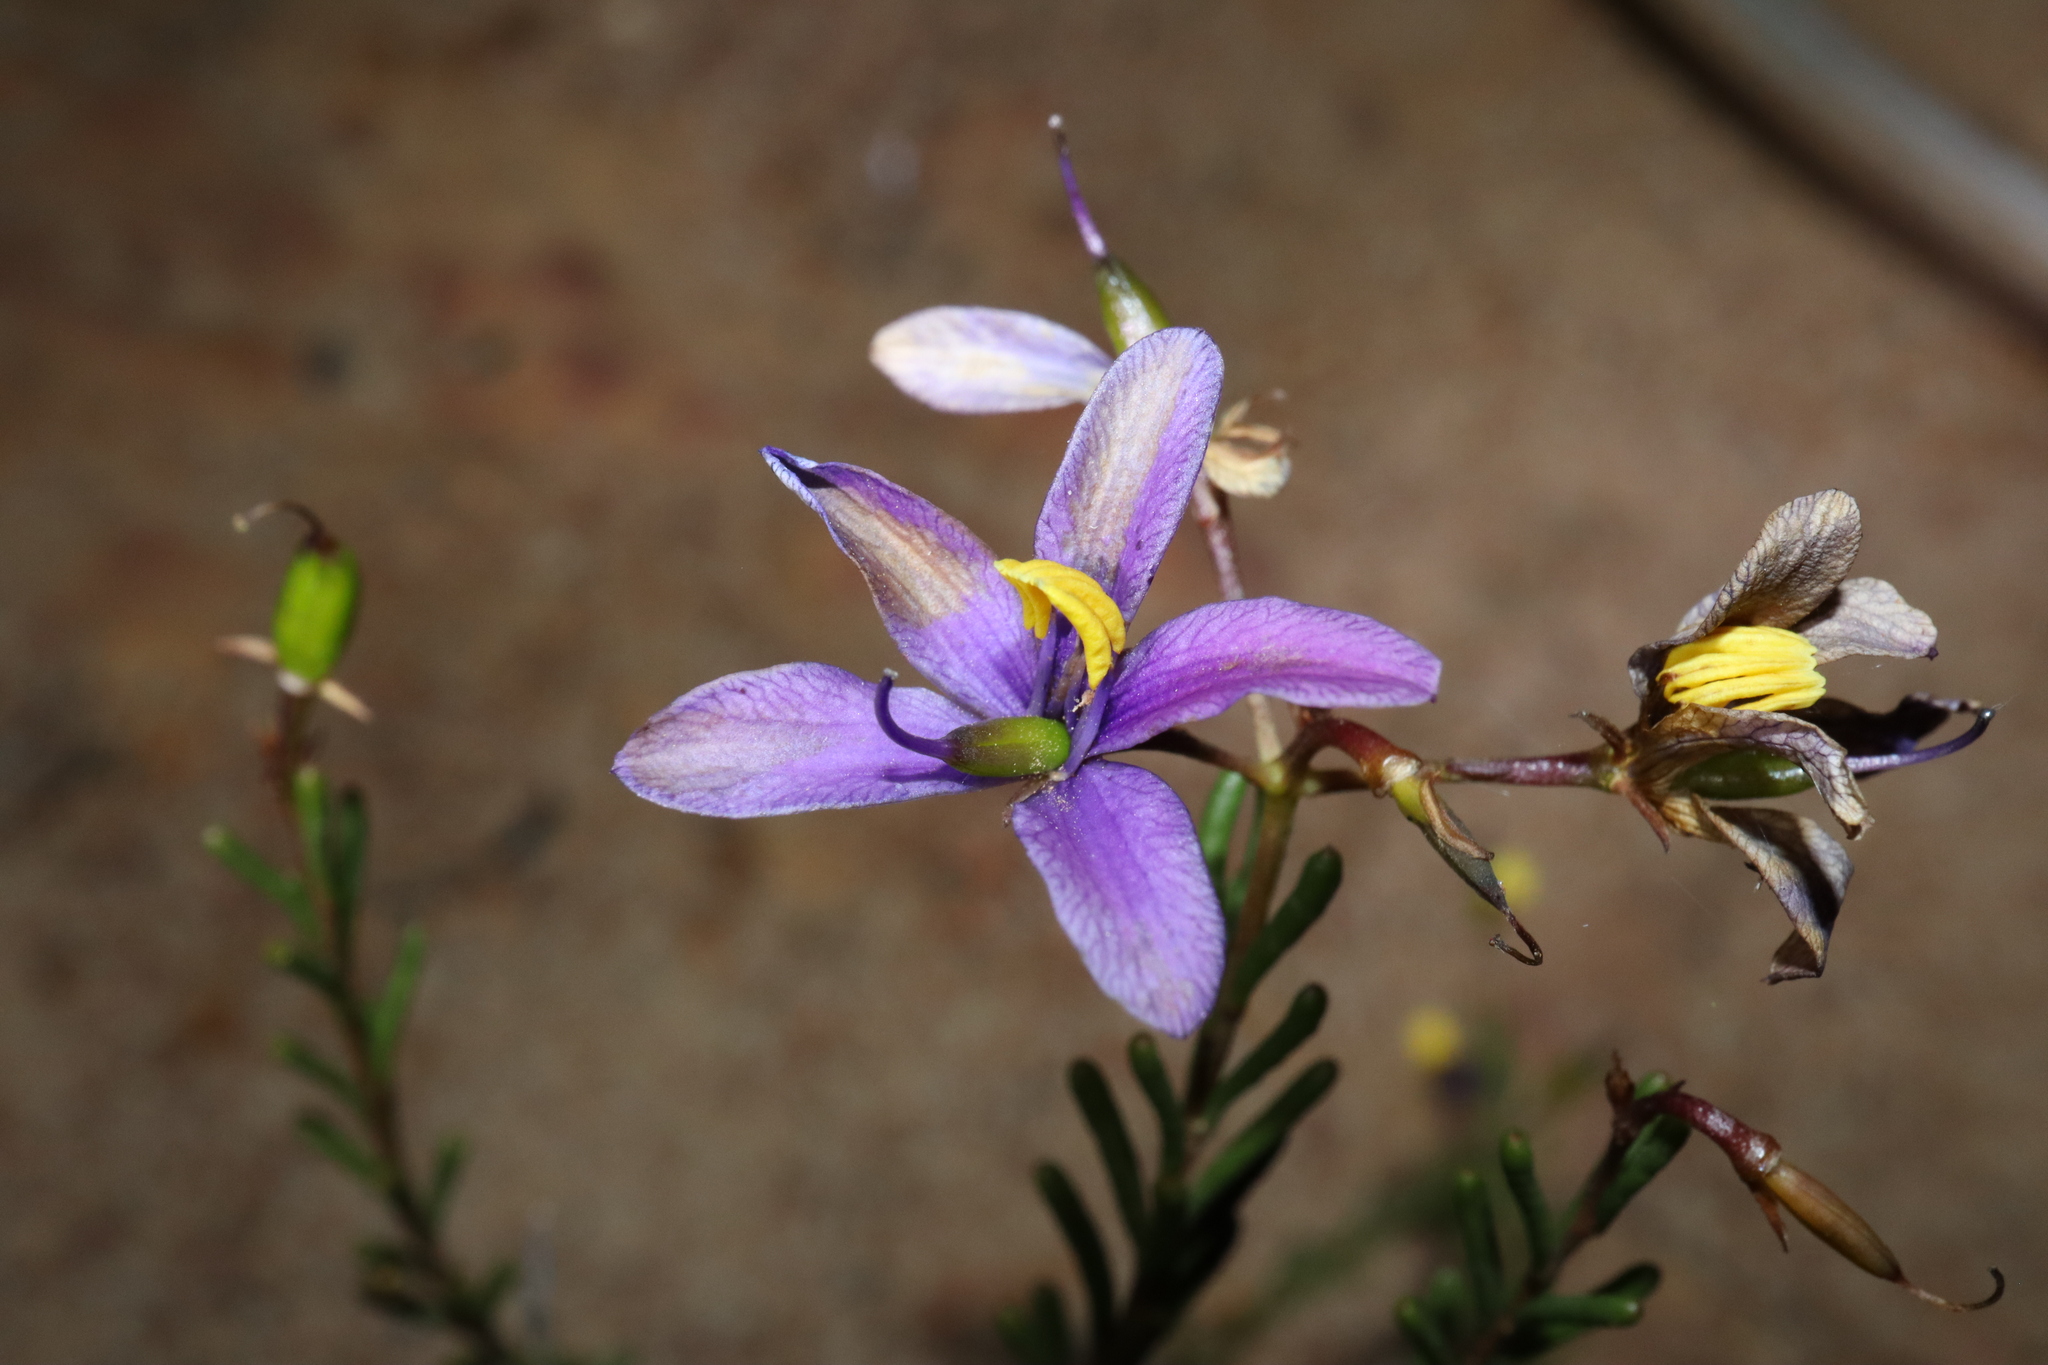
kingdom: Plantae
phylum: Tracheophyta
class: Magnoliopsida
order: Apiales
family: Pittosporaceae
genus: Cheiranthera
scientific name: Cheiranthera brevifolia
